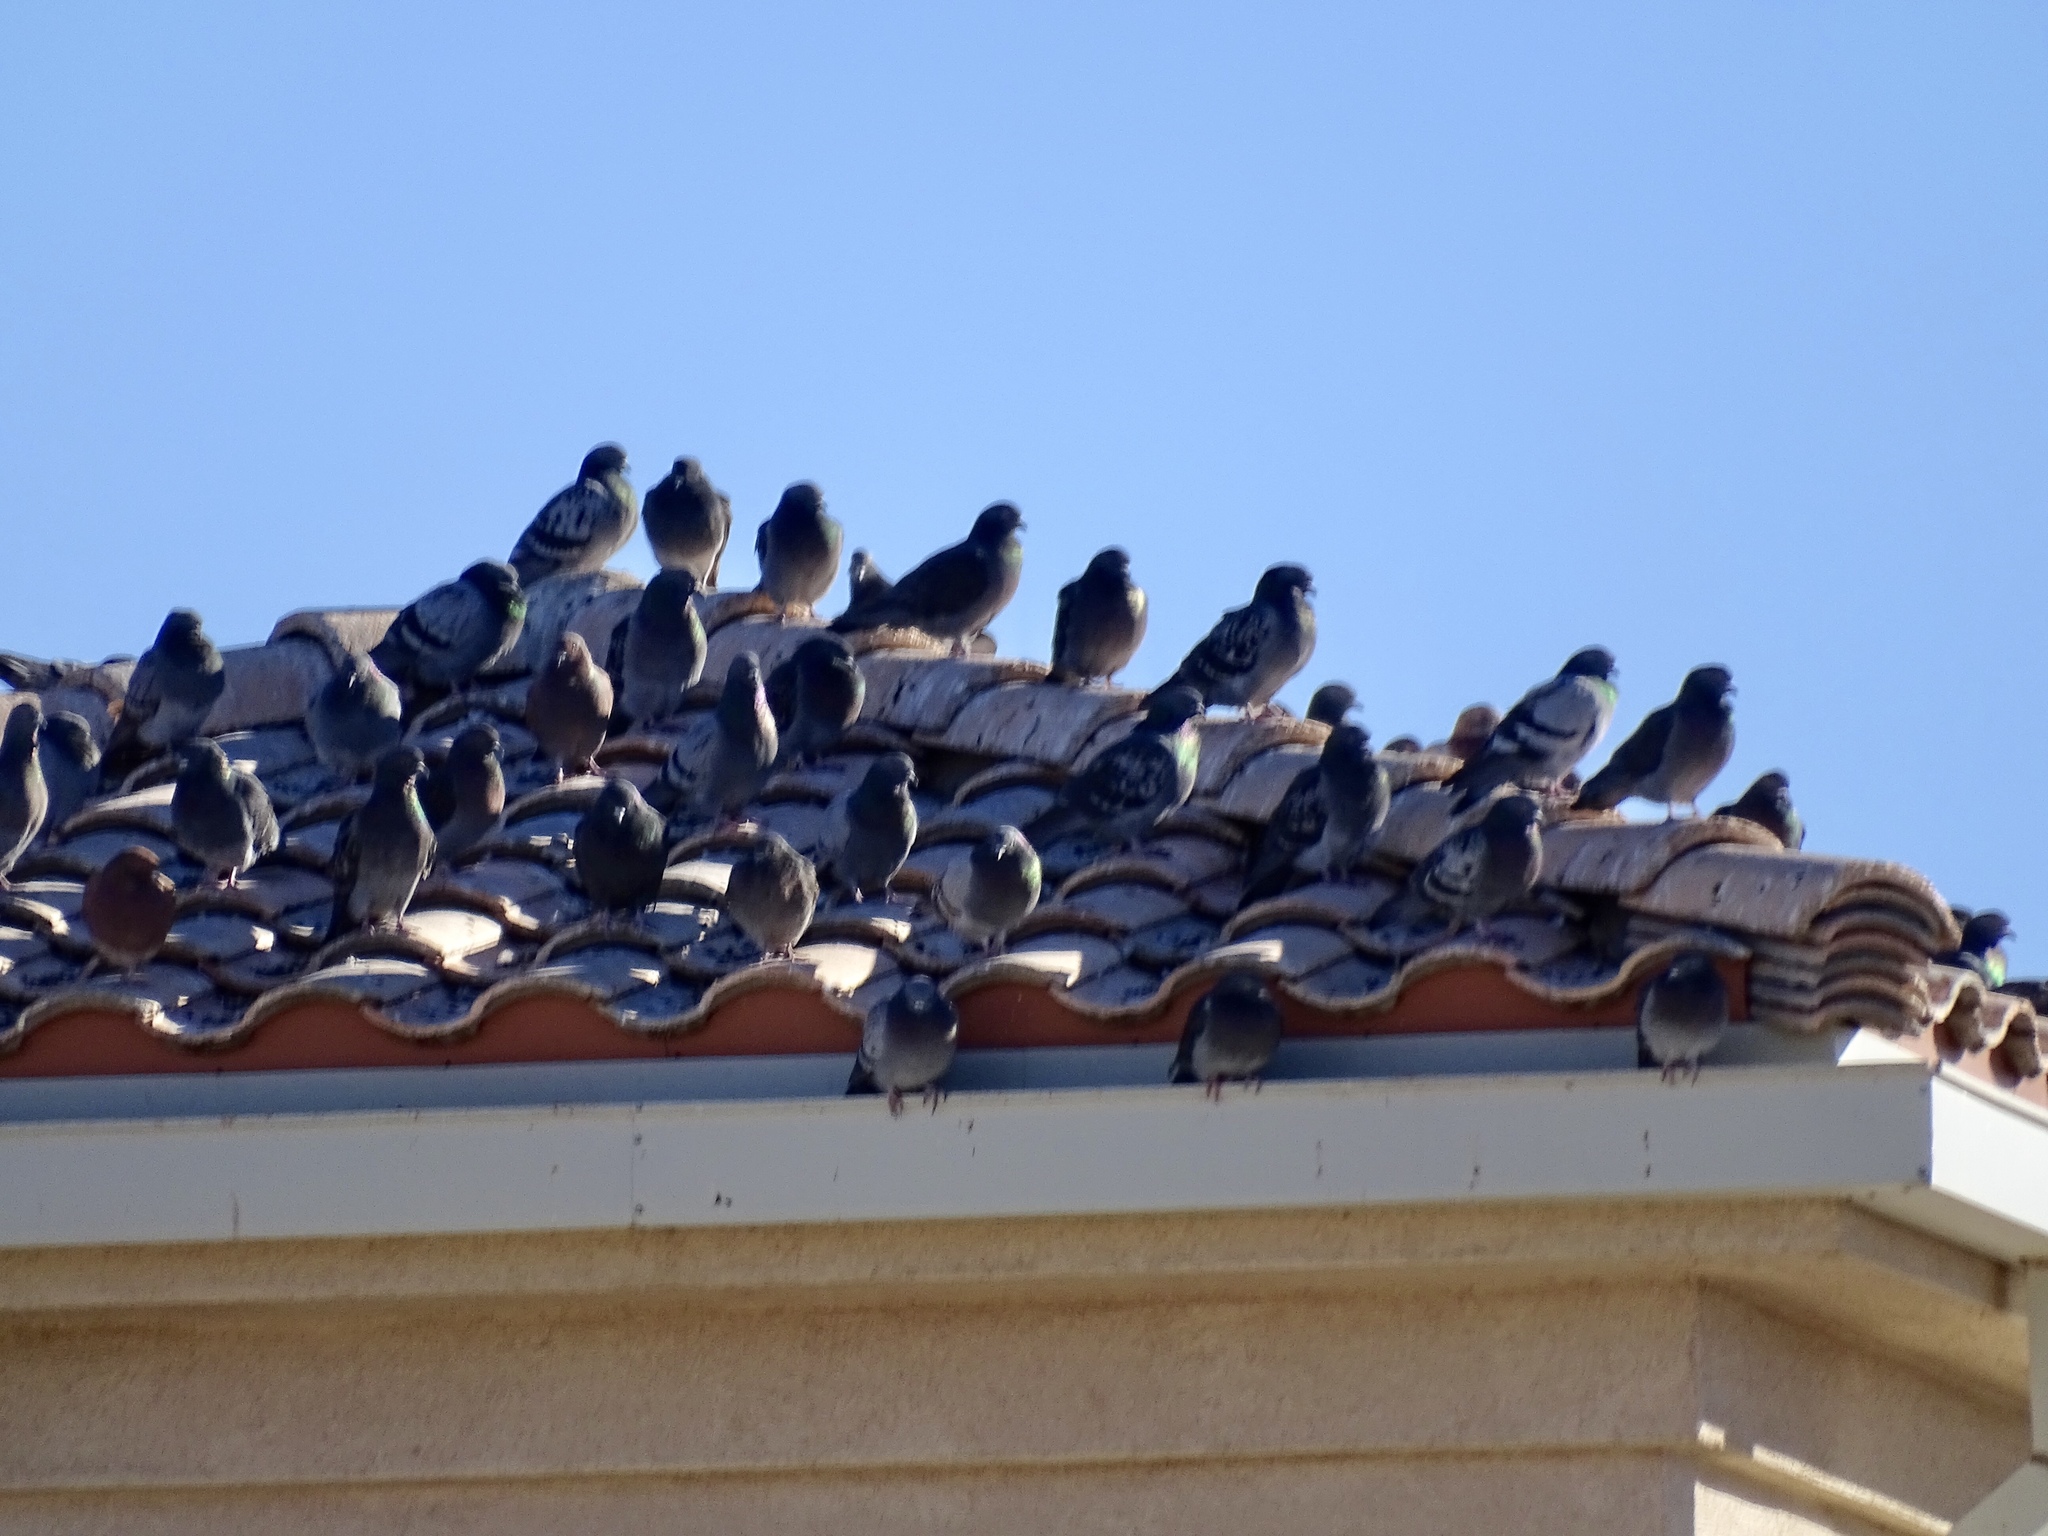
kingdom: Animalia
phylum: Chordata
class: Aves
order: Columbiformes
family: Columbidae
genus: Columba
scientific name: Columba livia
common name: Rock pigeon
